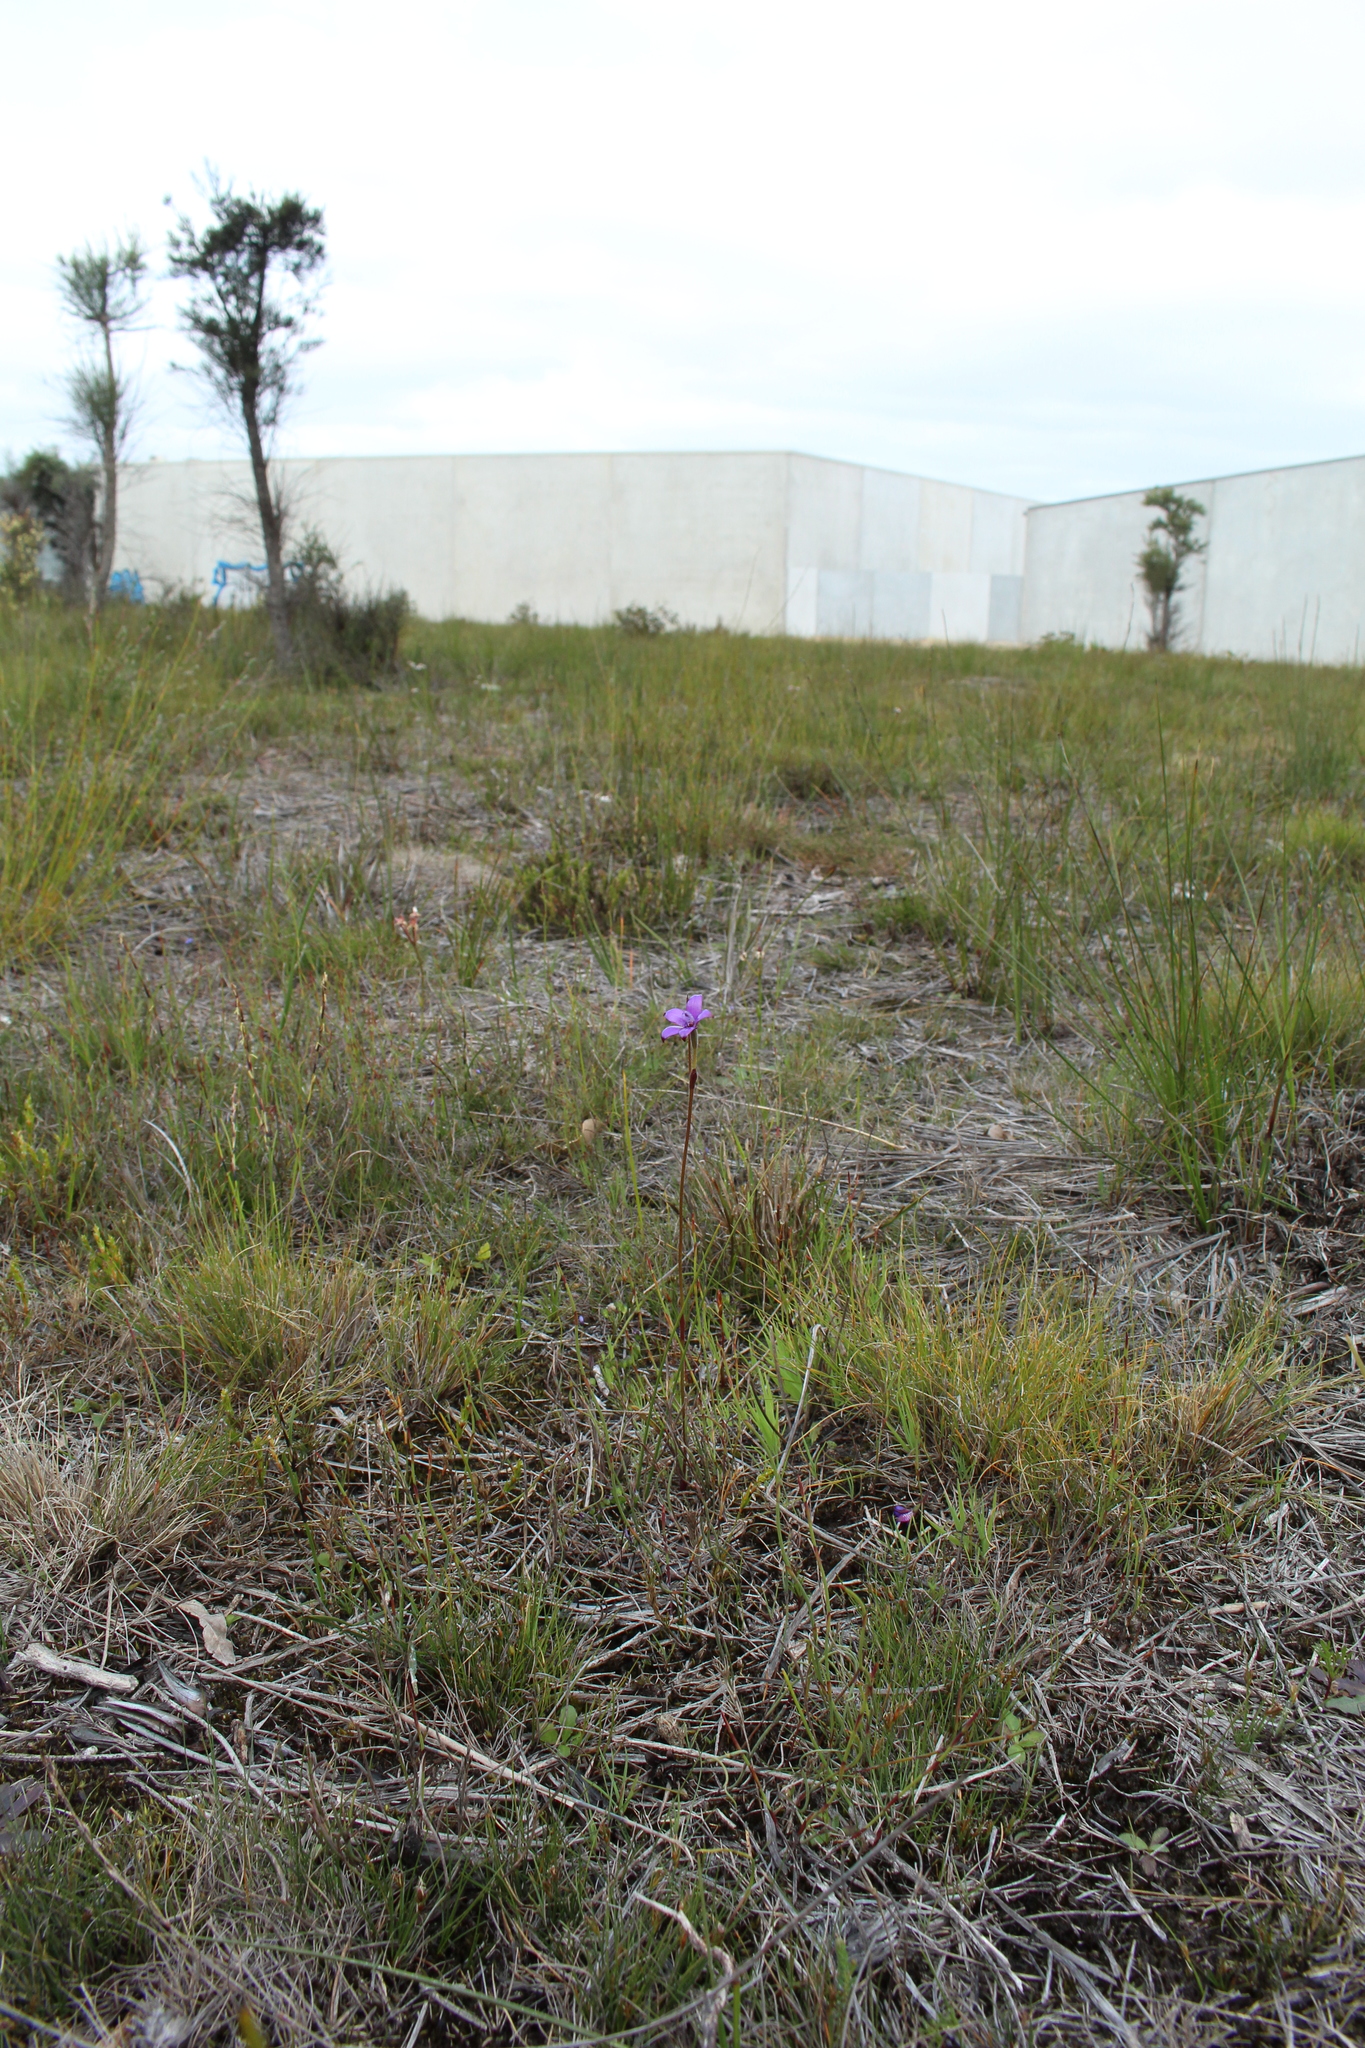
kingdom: Plantae
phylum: Tracheophyta
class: Liliopsida
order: Asparagales
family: Orchidaceae
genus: Caladenia
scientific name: Caladenia brunonis
